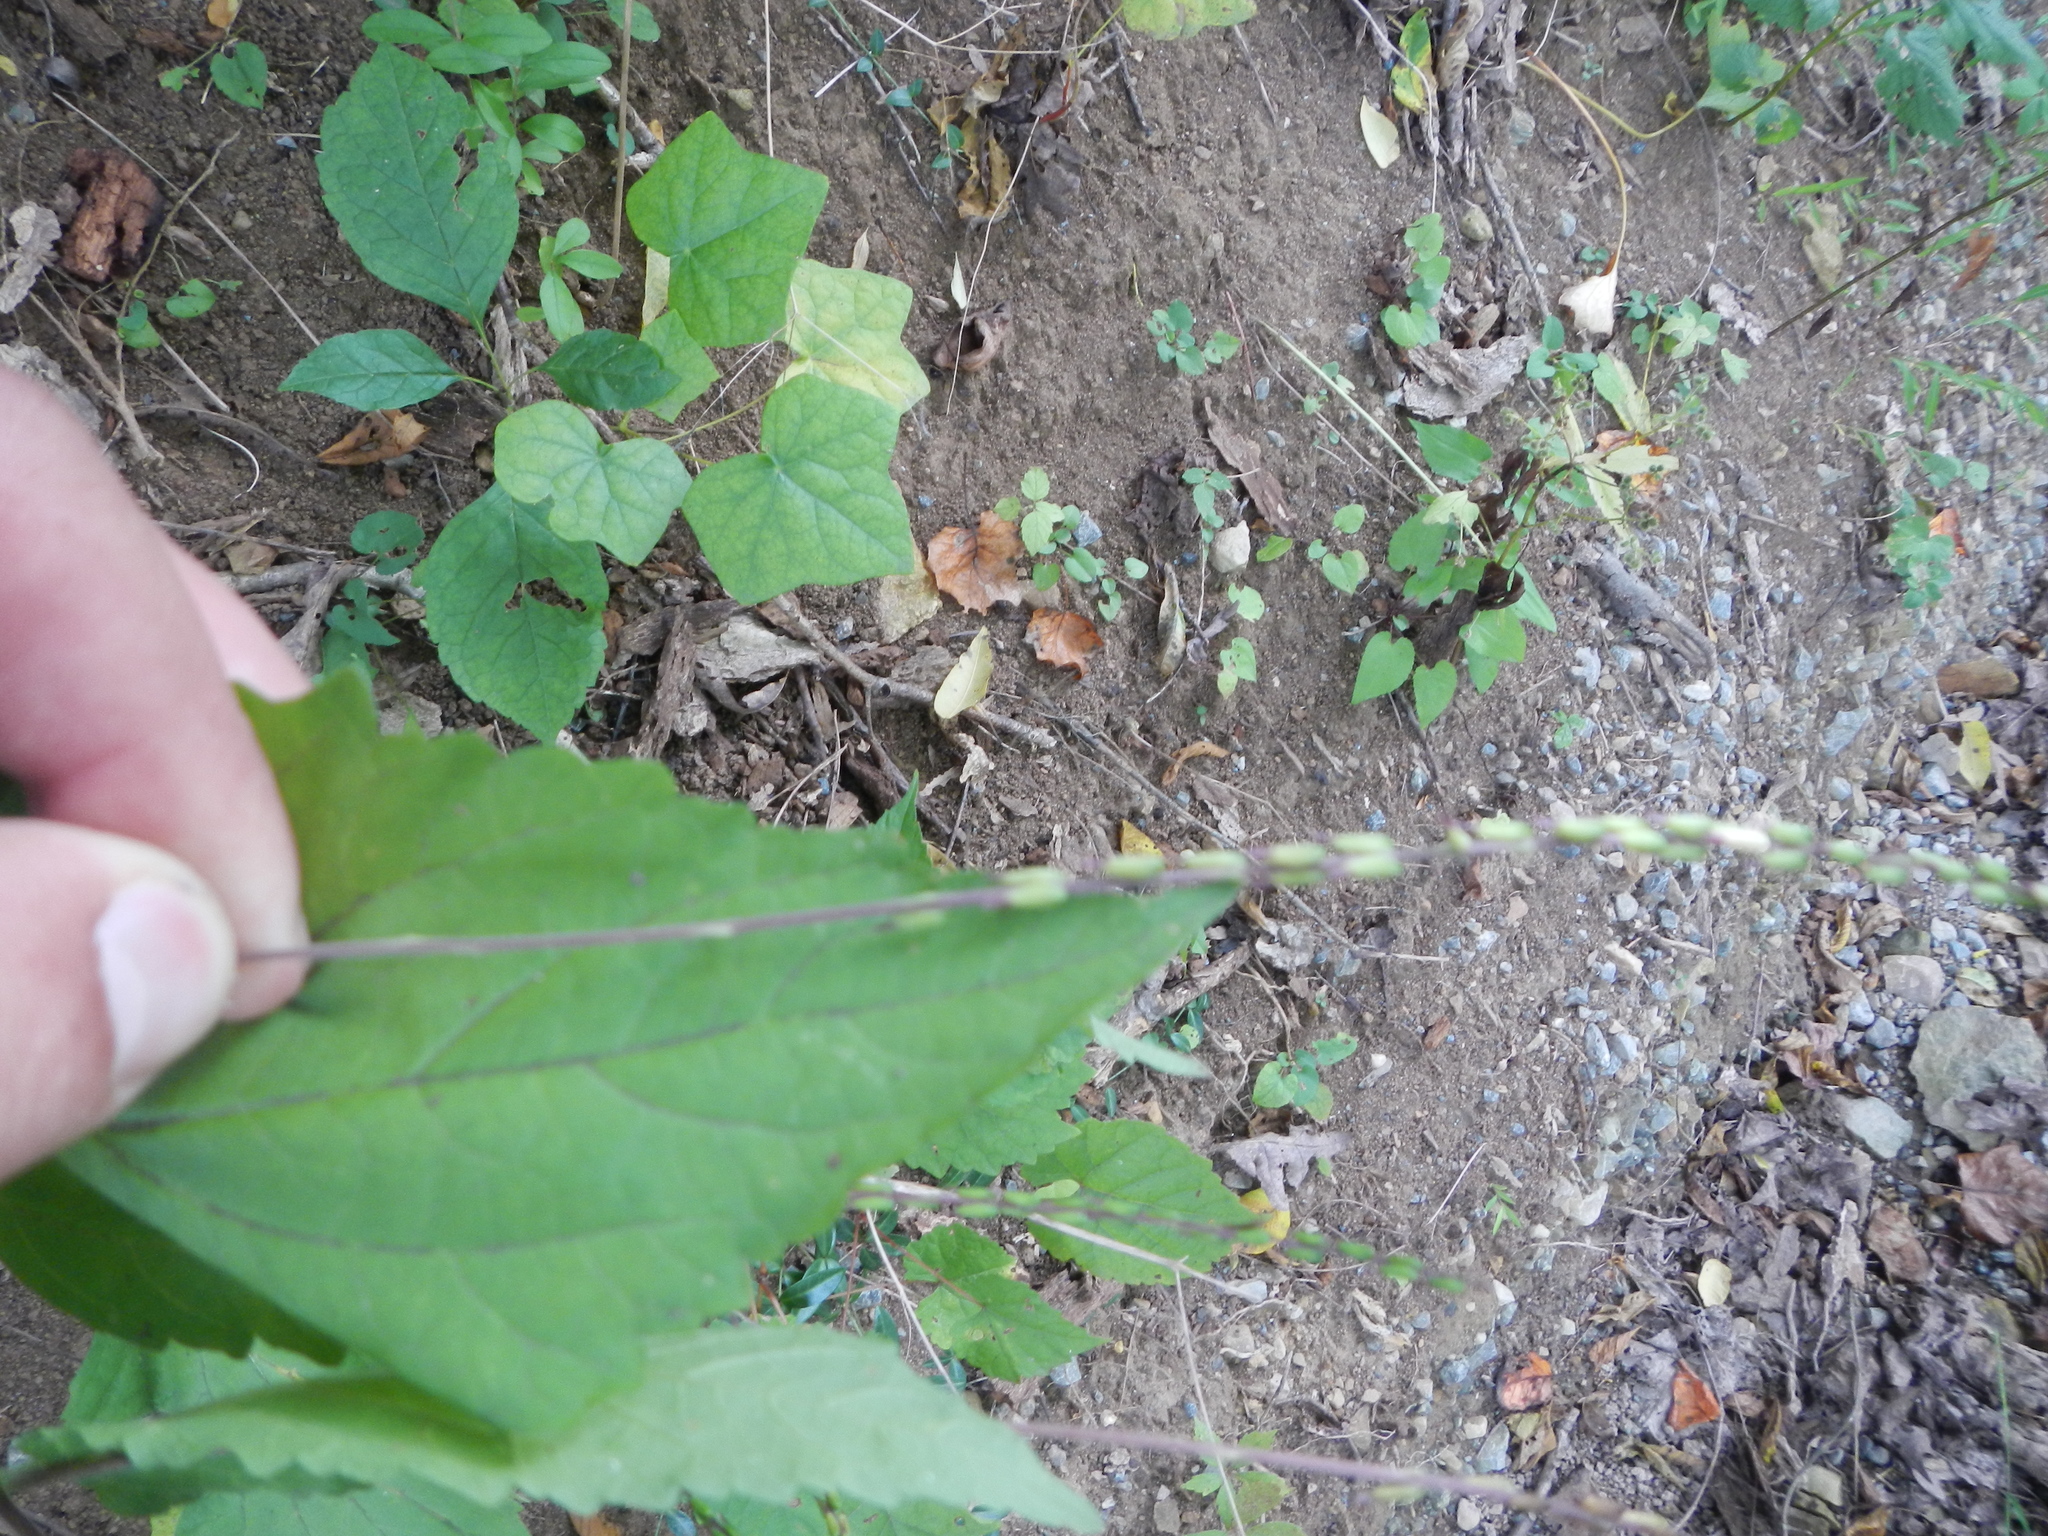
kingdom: Plantae
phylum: Tracheophyta
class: Magnoliopsida
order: Lamiales
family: Phrymaceae
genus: Phryma
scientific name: Phryma leptostachya
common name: American lopseed
